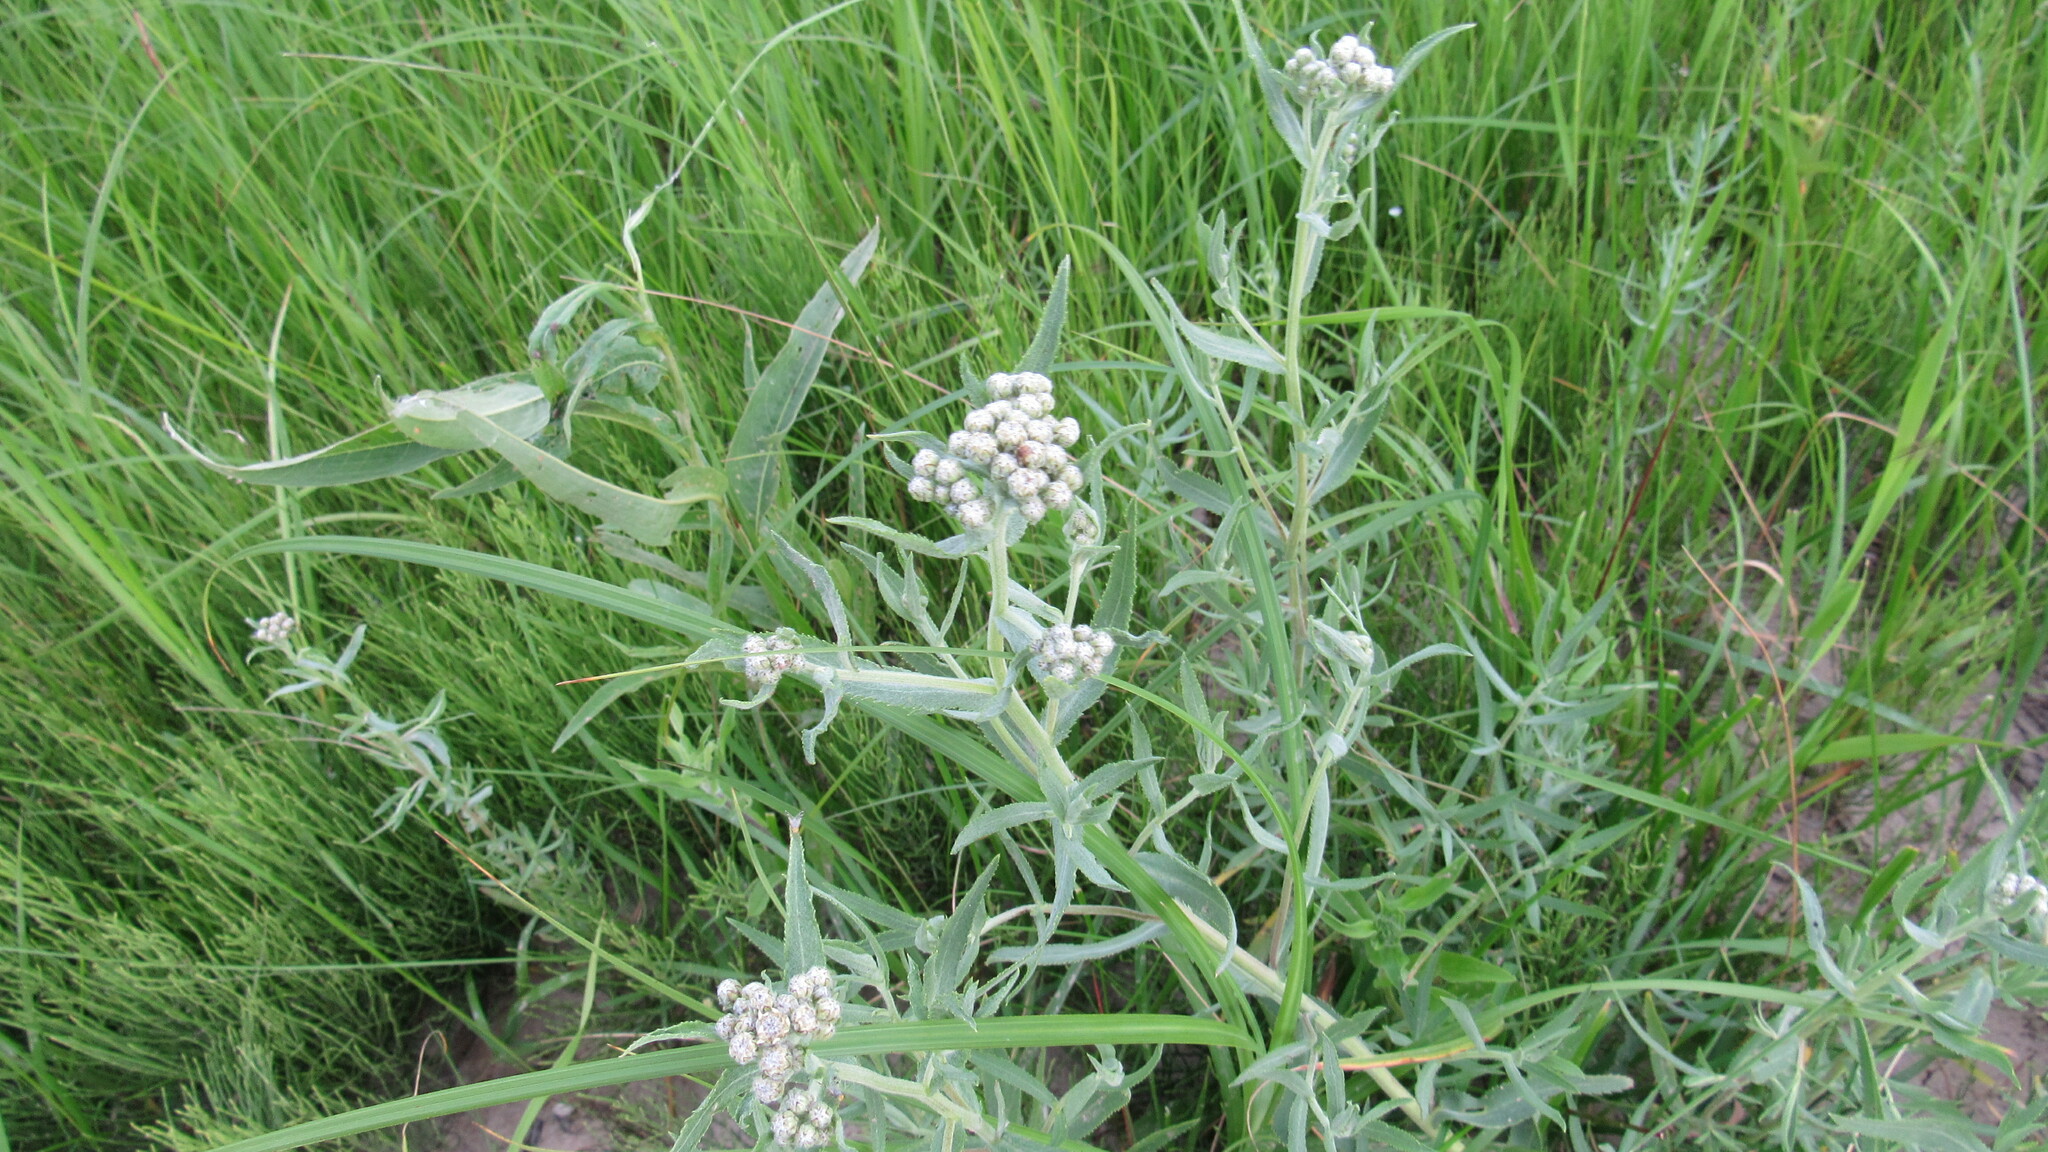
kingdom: Plantae
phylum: Tracheophyta
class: Magnoliopsida
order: Asterales
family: Asteraceae
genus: Achillea
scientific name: Achillea salicifolia
